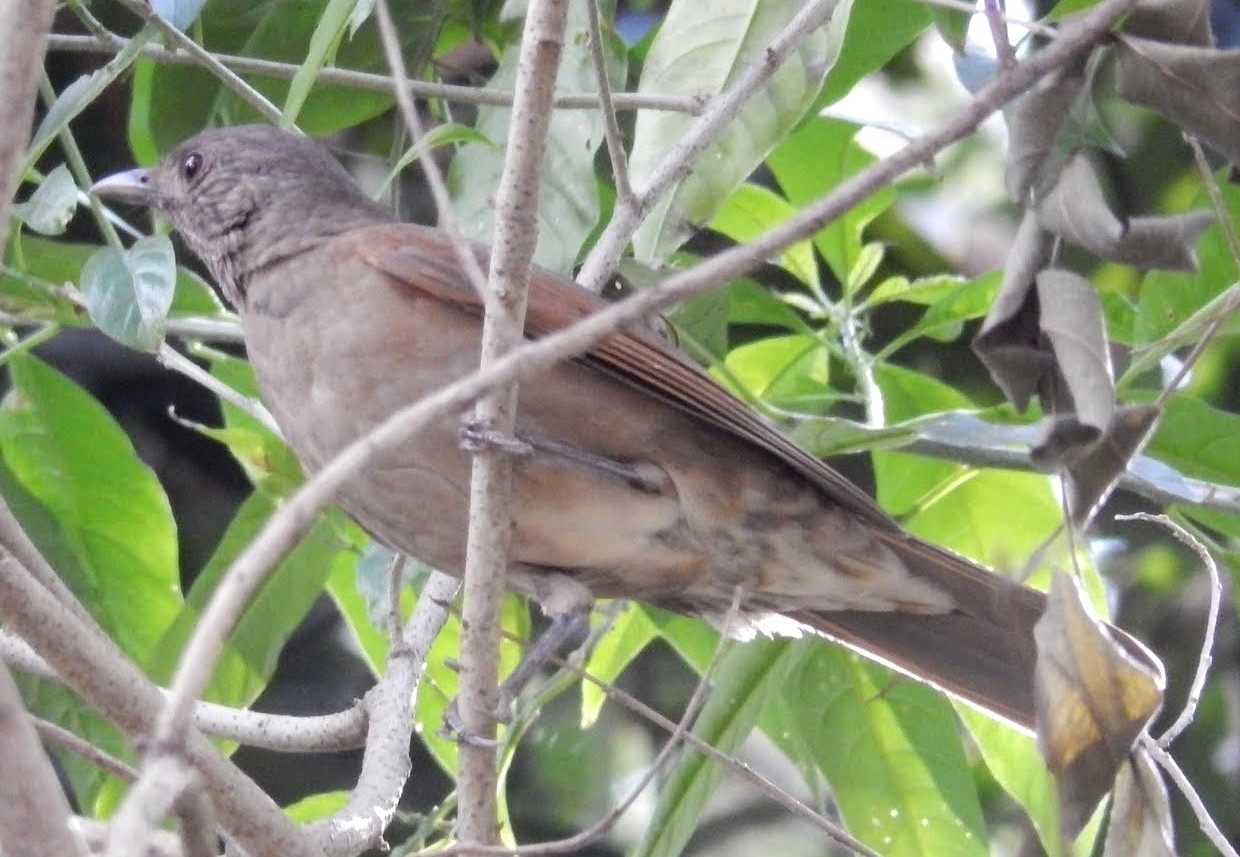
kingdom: Animalia
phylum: Chordata
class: Aves
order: Passeriformes
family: Turdidae
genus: Turdus
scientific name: Turdus leucomelas
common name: Pale-breasted thrush
